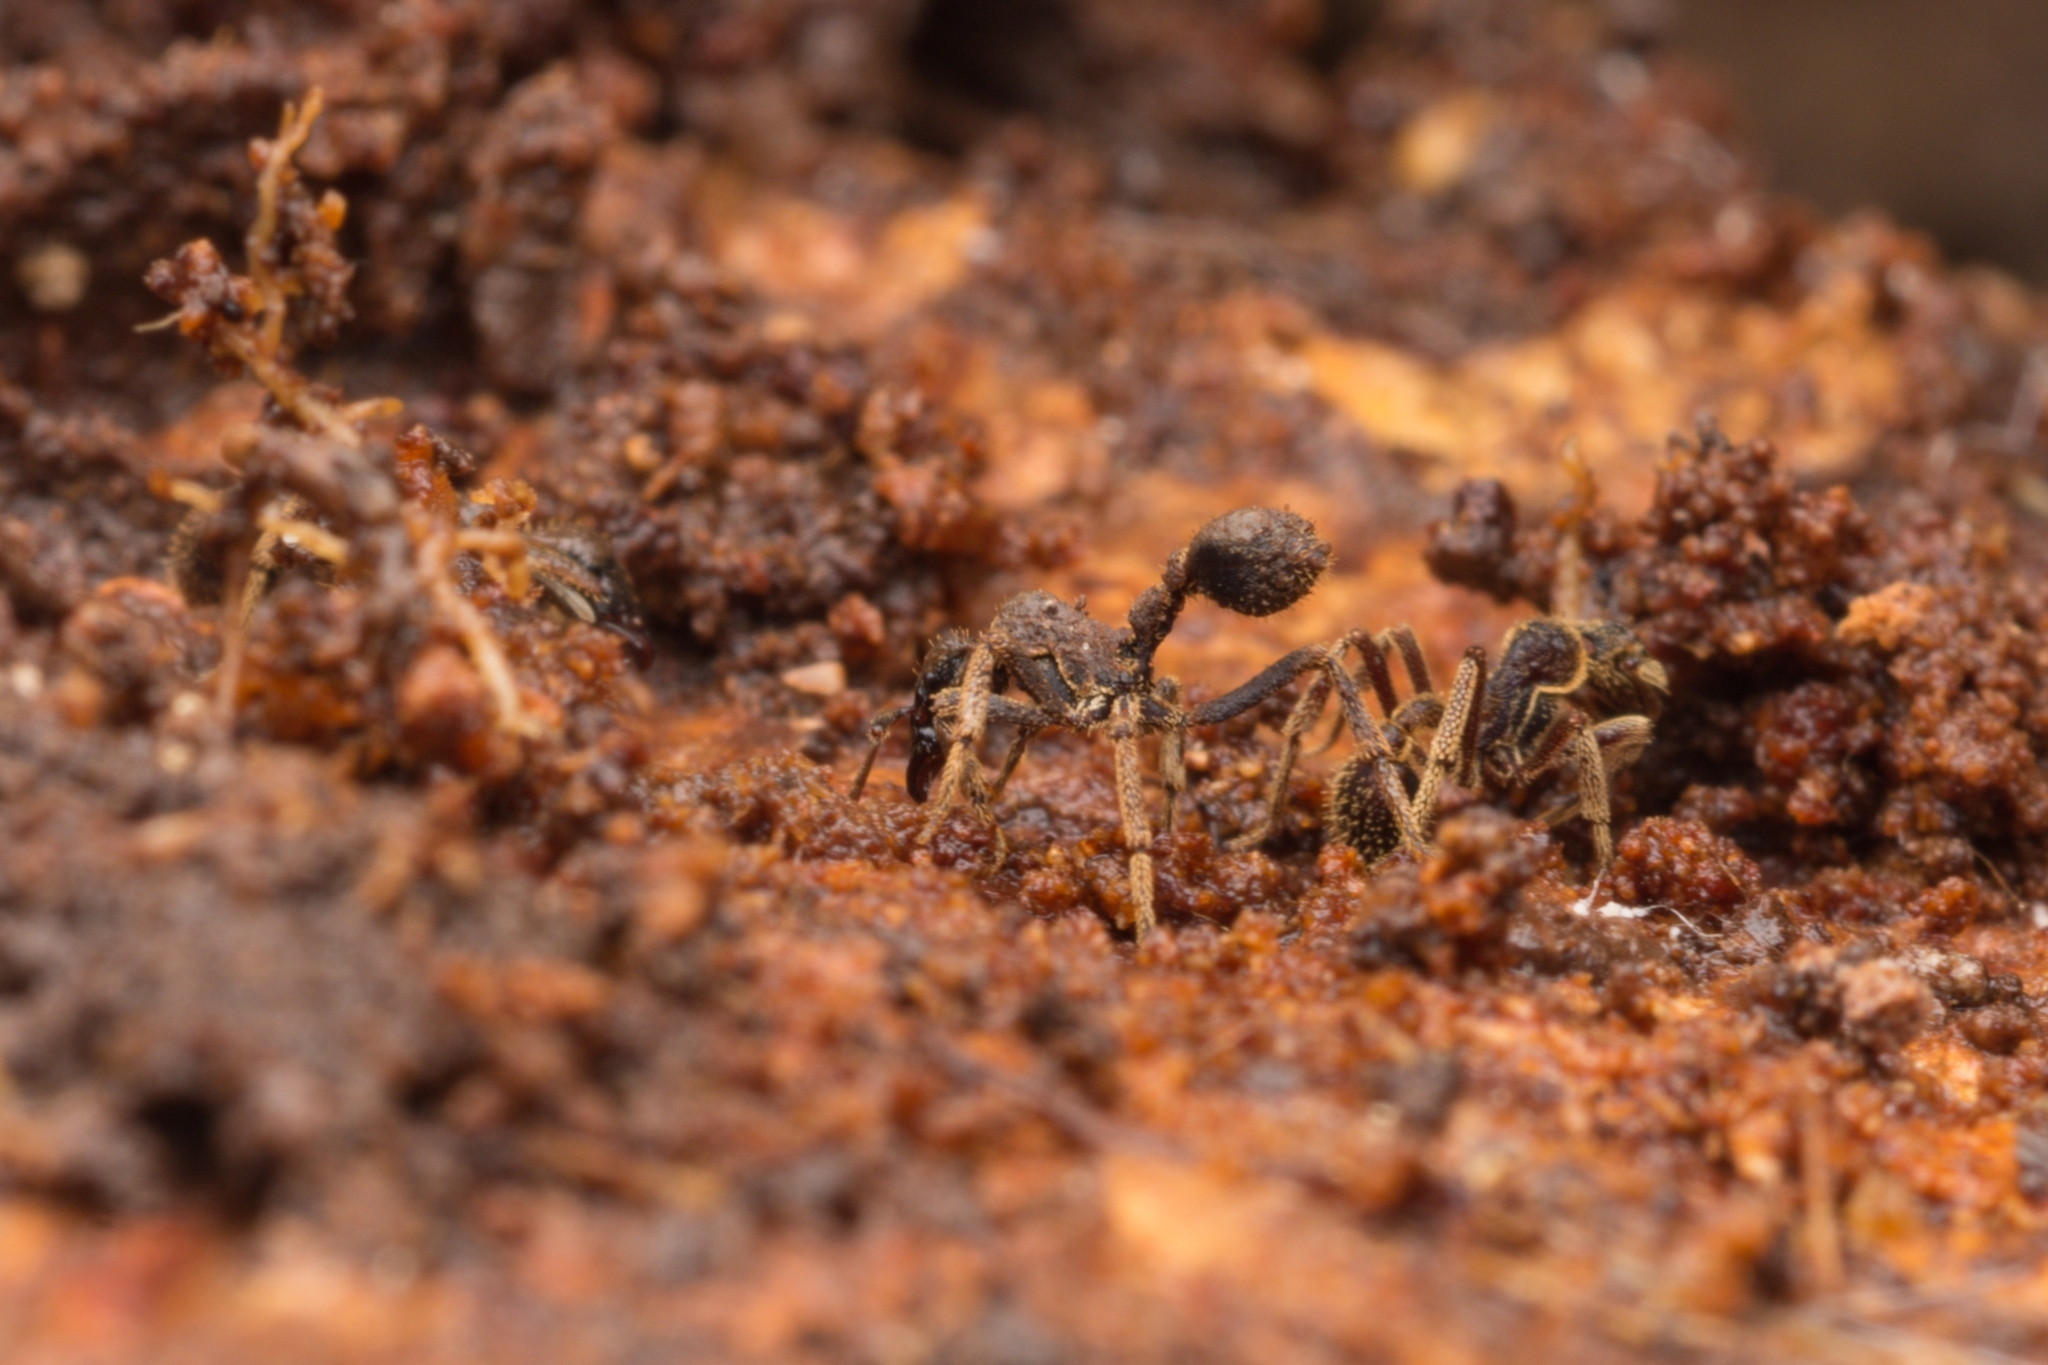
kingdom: Animalia
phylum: Arthropoda
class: Insecta
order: Hymenoptera
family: Formicidae
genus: Basiceros
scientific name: Basiceros singularis
